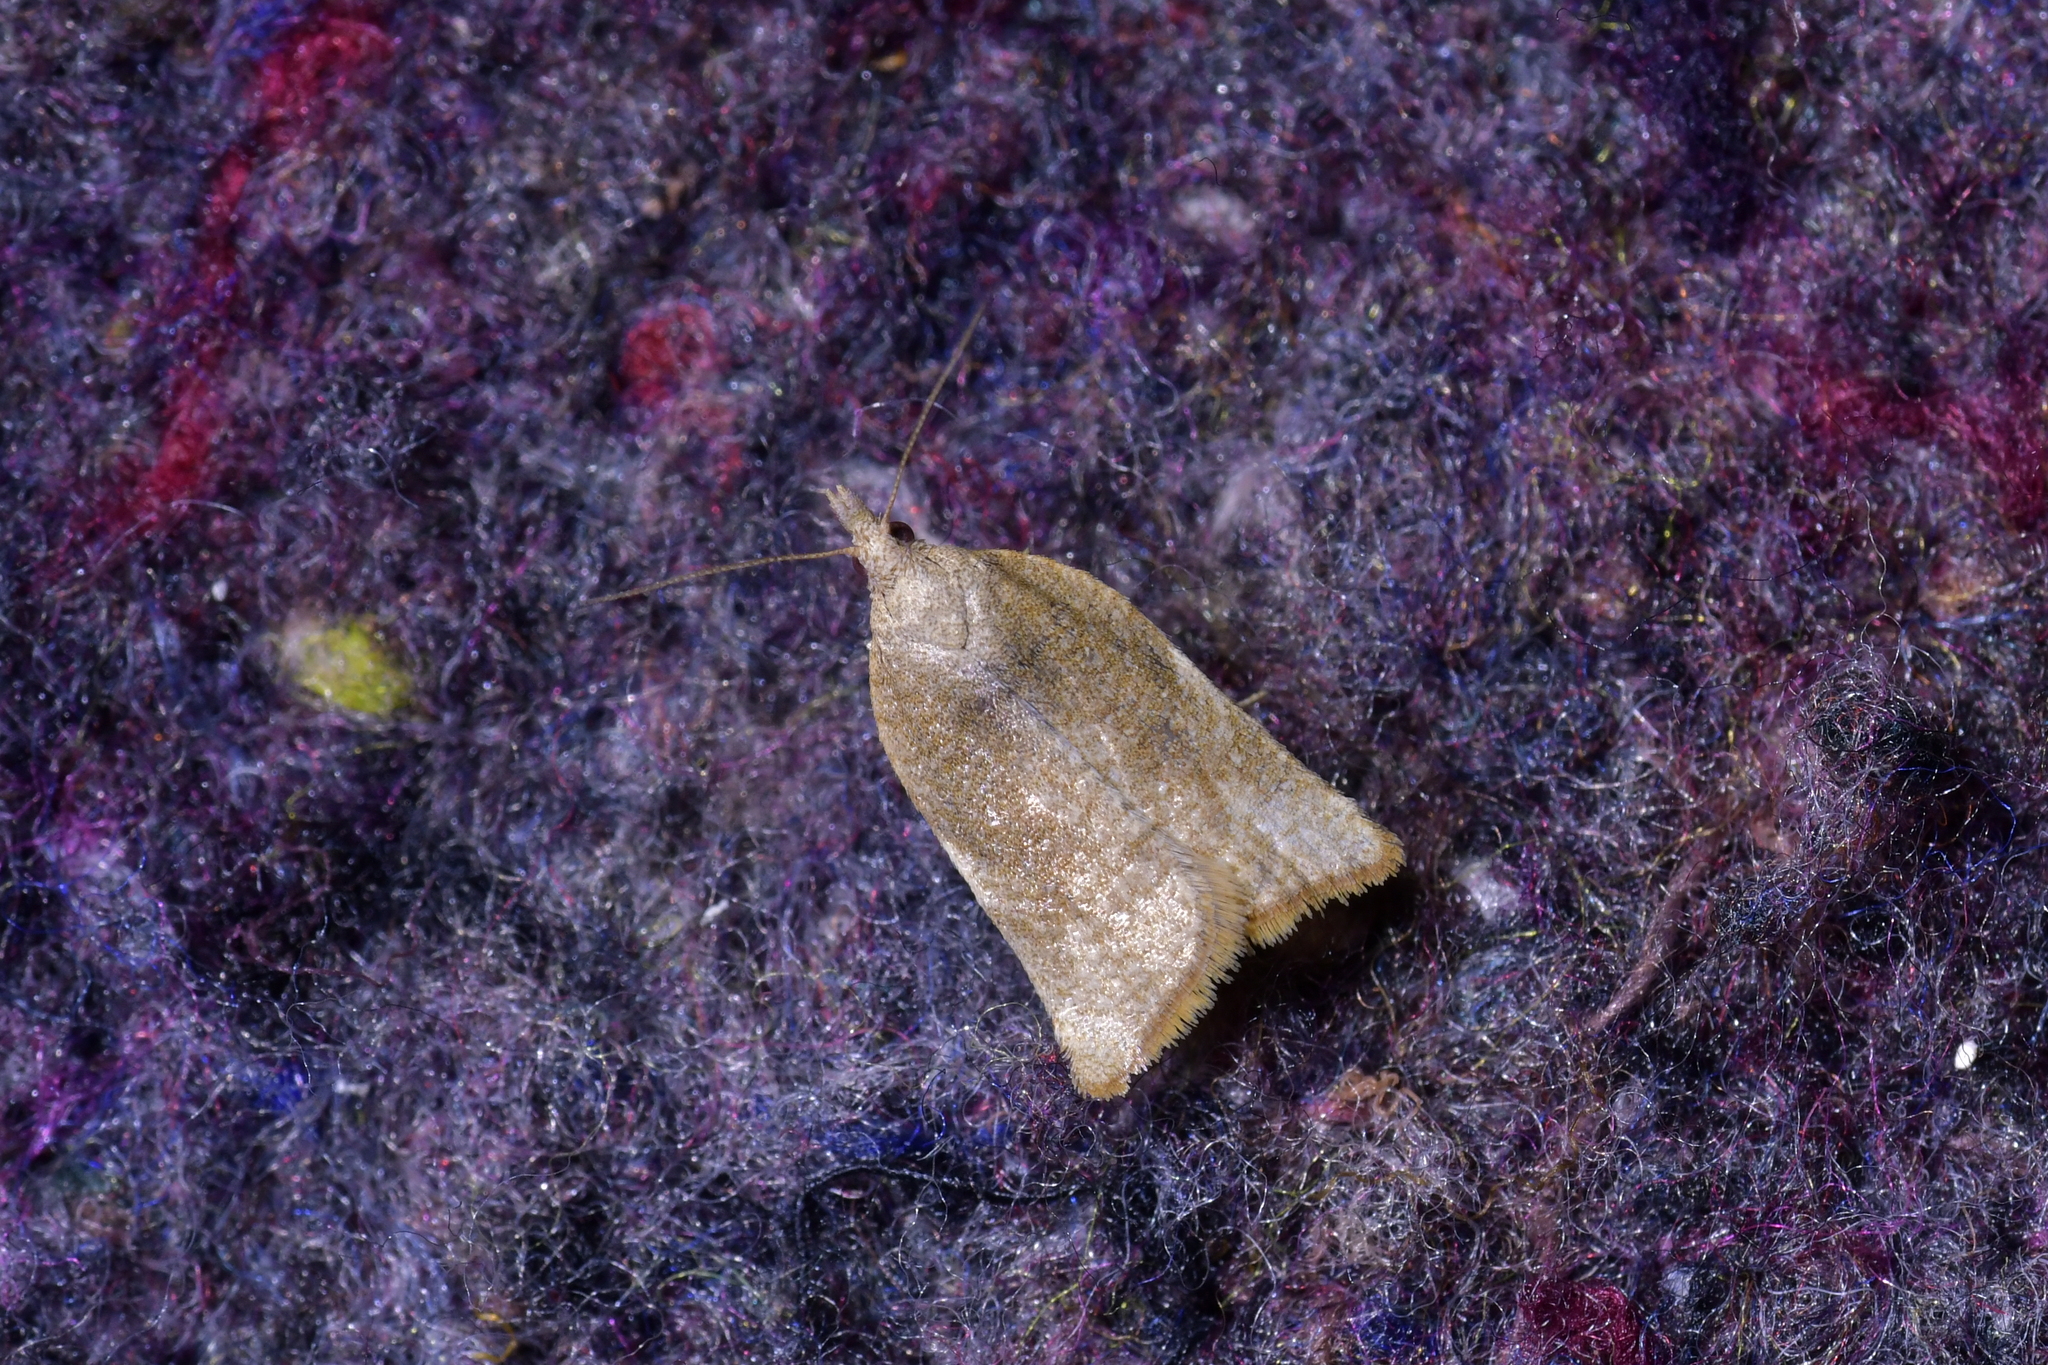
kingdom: Animalia
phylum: Arthropoda
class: Insecta
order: Lepidoptera
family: Tortricidae
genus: Catamacta
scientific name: Catamacta gavisana
